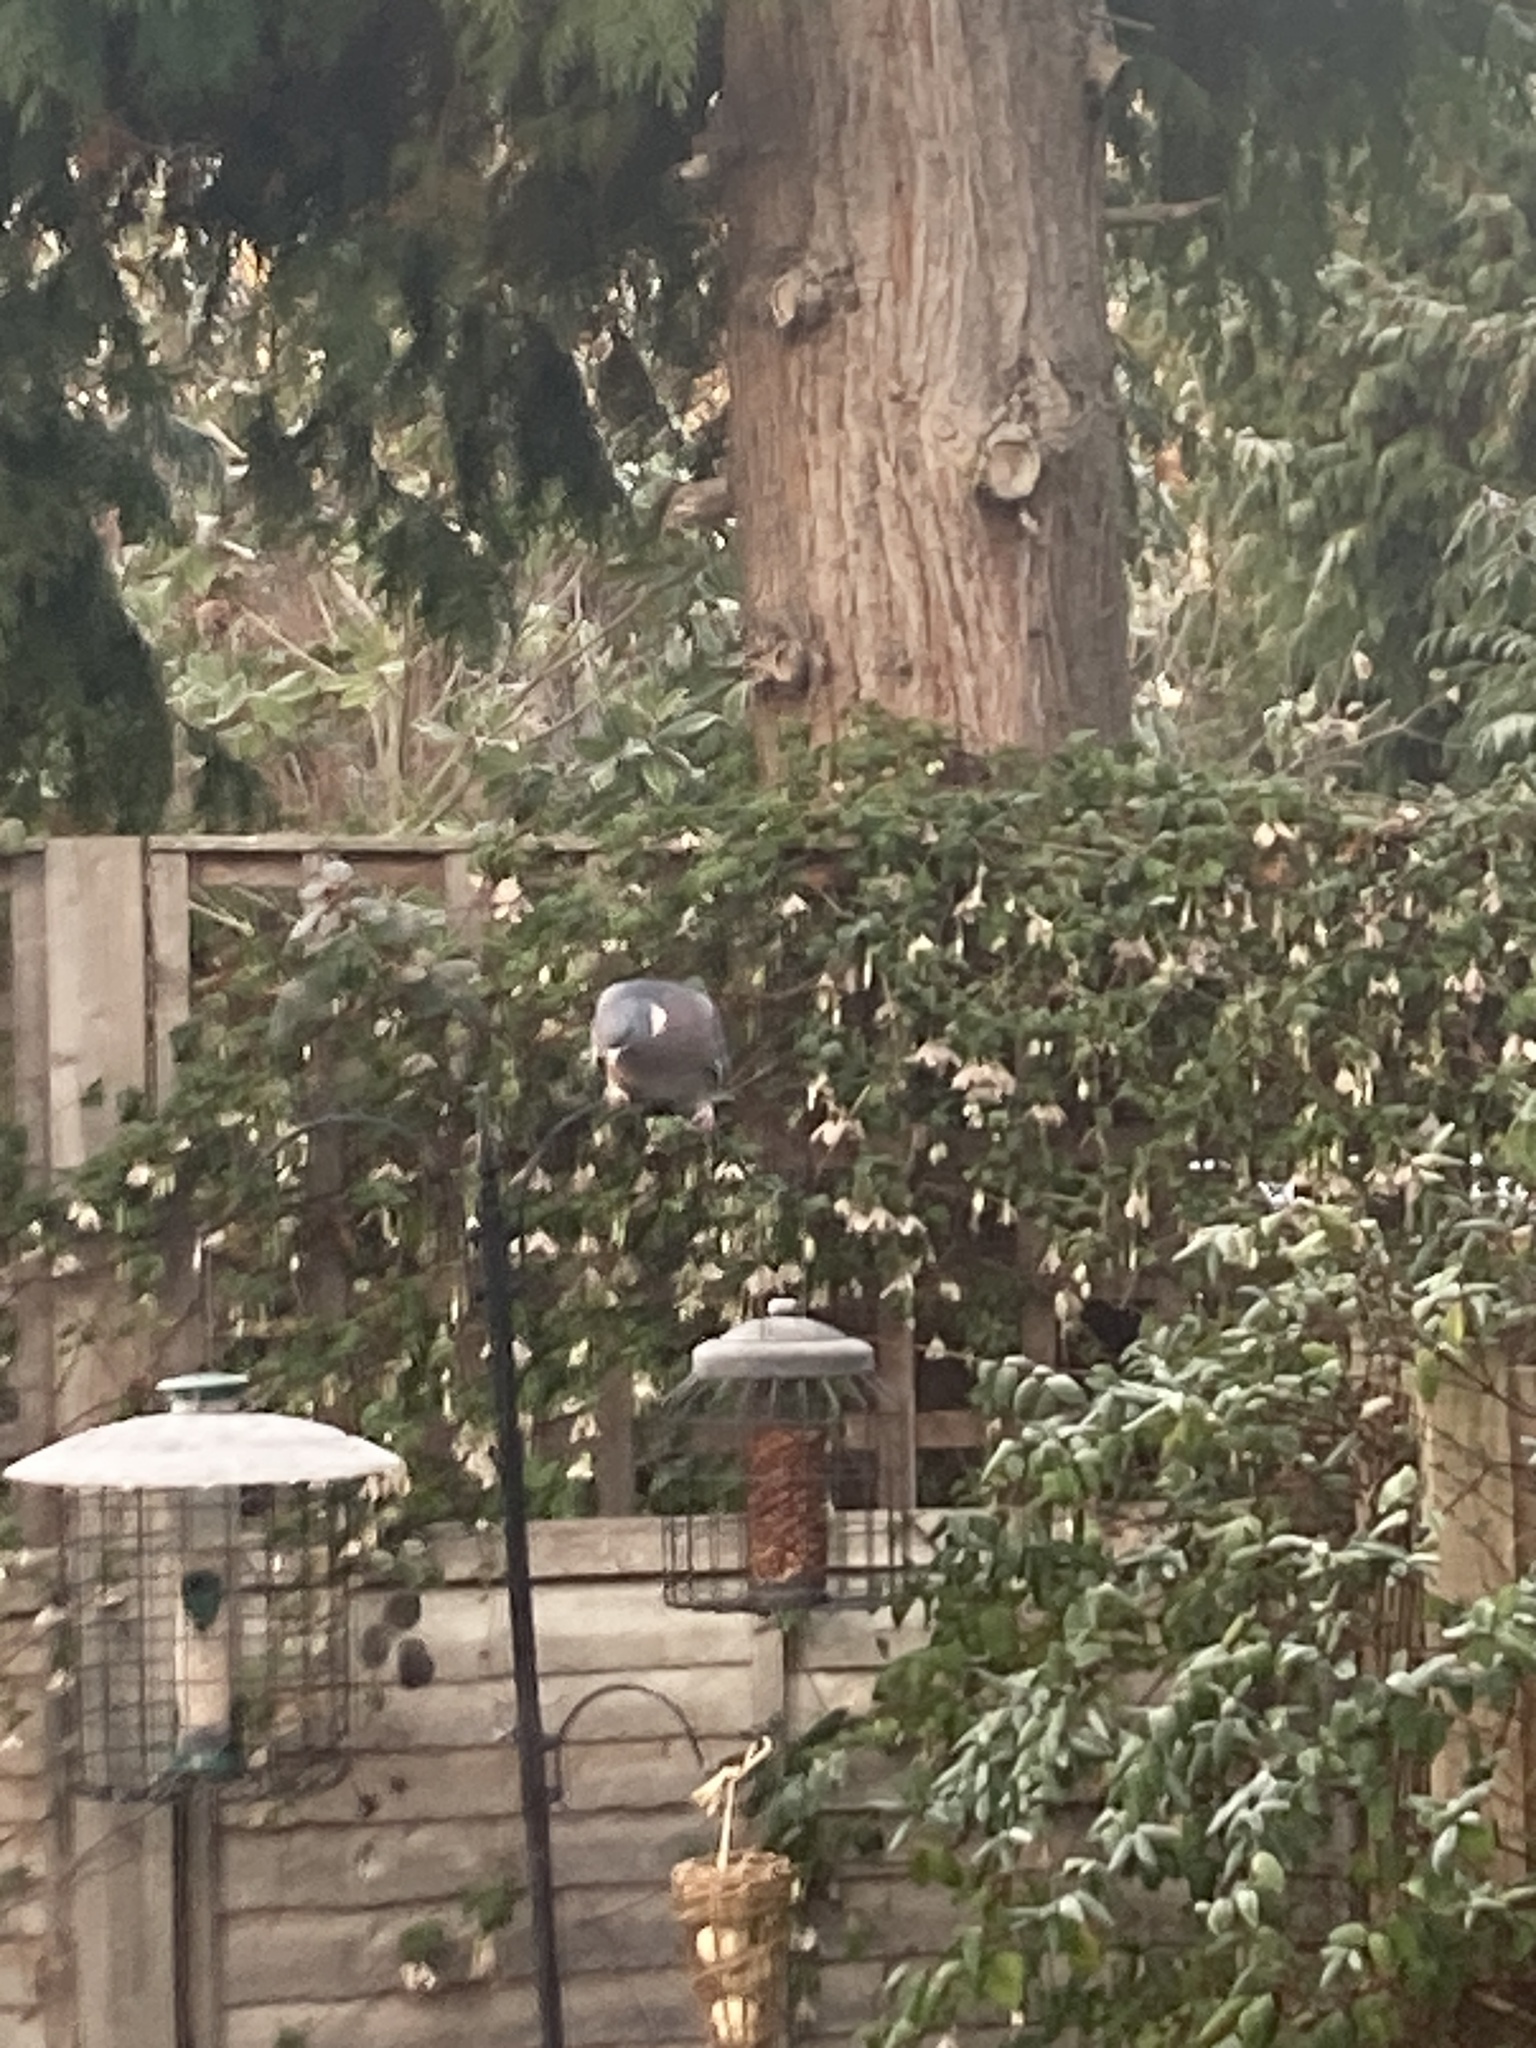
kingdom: Animalia
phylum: Chordata
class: Aves
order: Columbiformes
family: Columbidae
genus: Columba
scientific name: Columba palumbus
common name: Common wood pigeon
